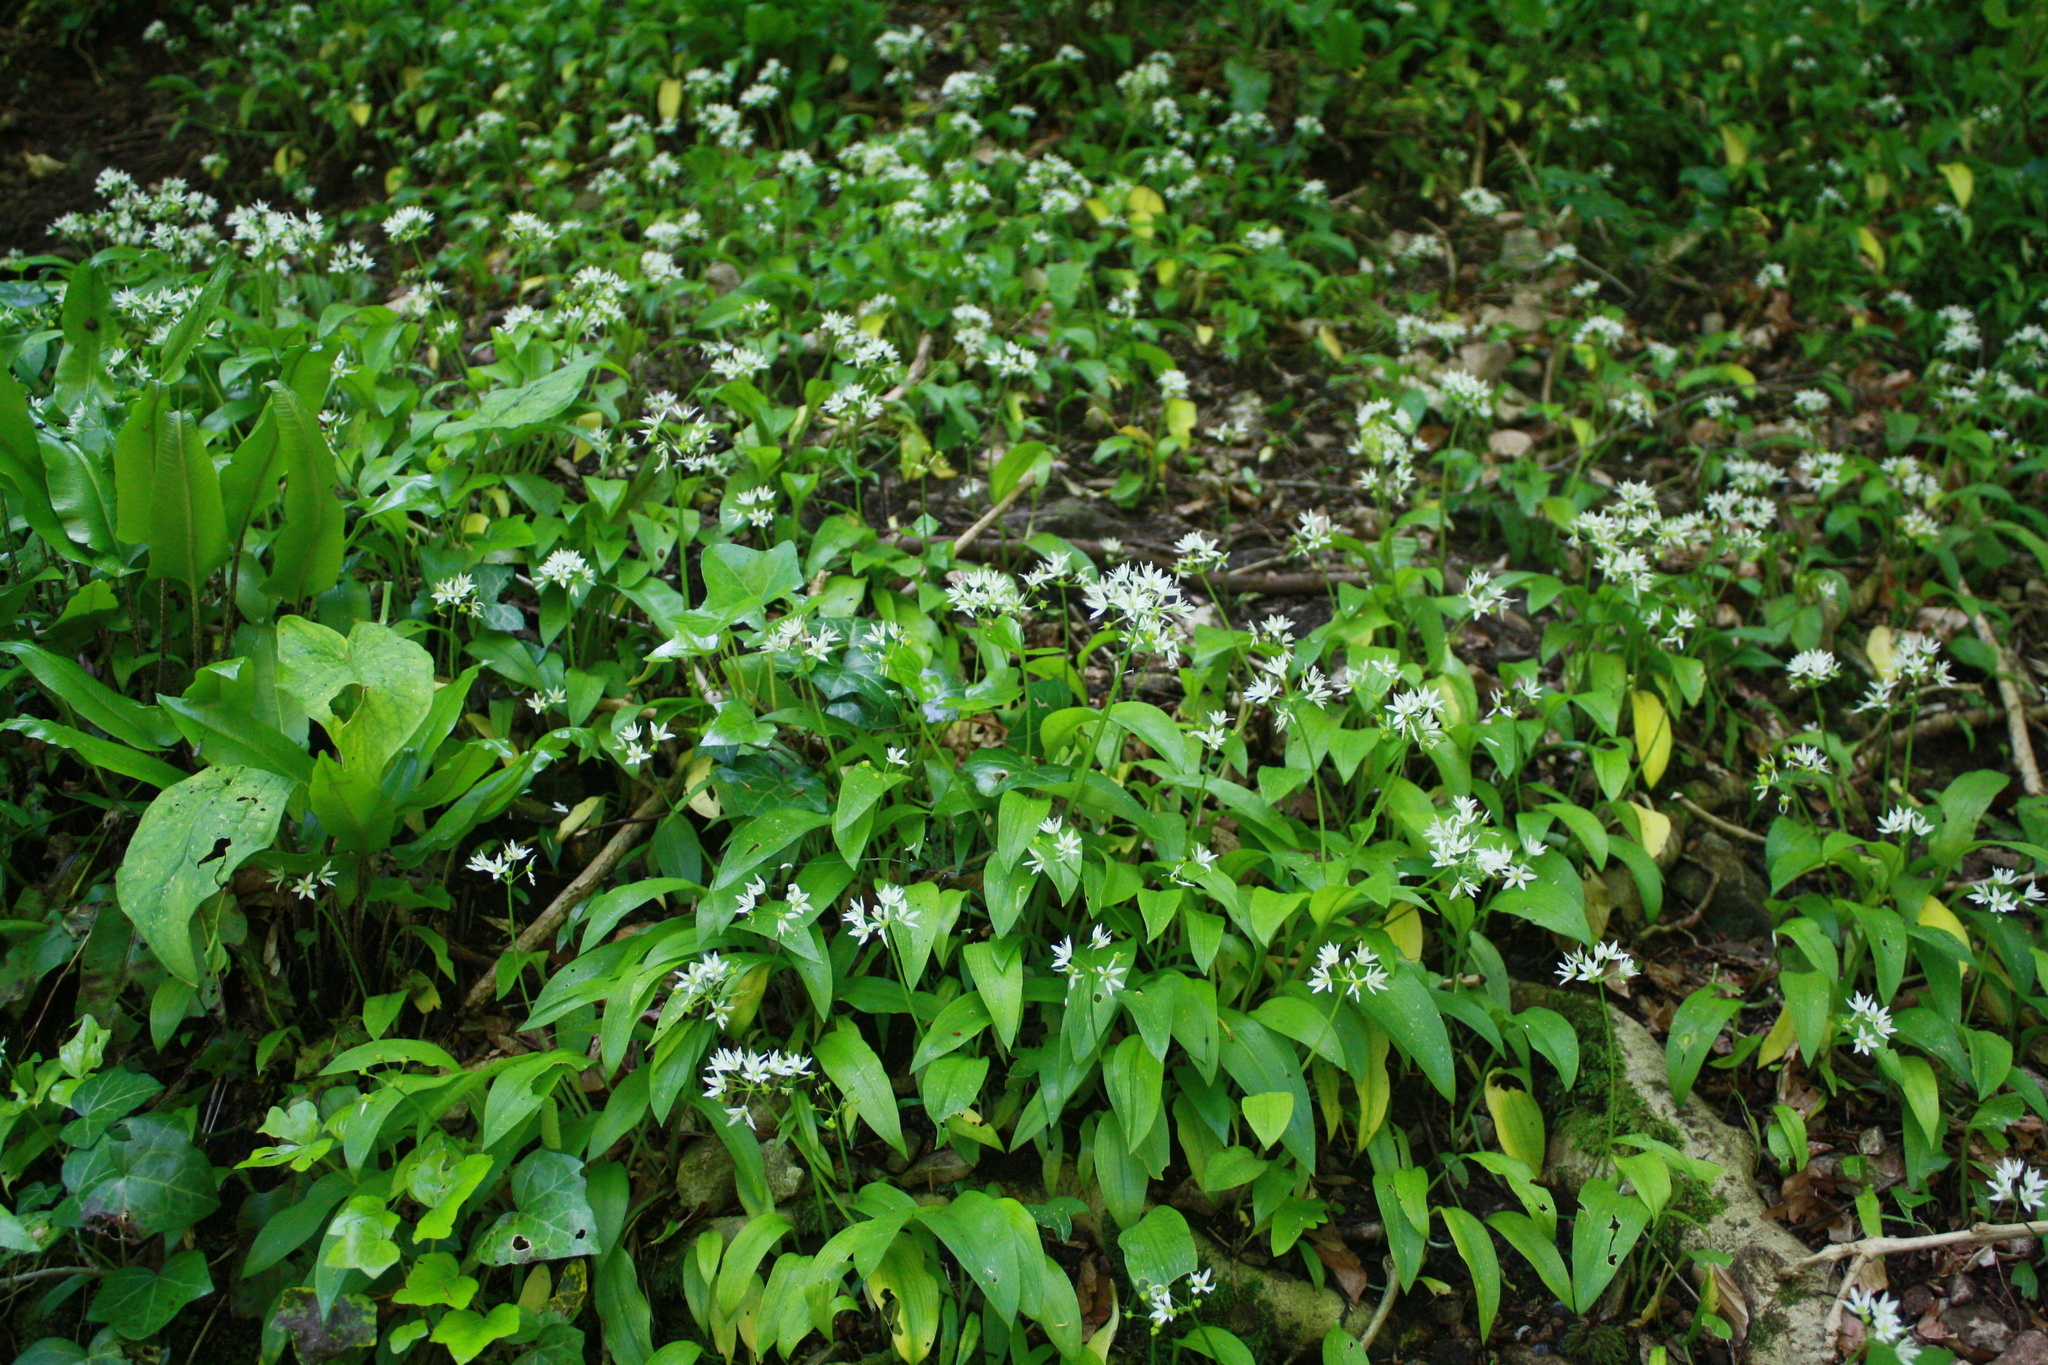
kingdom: Plantae
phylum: Tracheophyta
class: Liliopsida
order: Asparagales
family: Amaryllidaceae
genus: Allium
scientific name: Allium ursinum
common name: Ramsons
